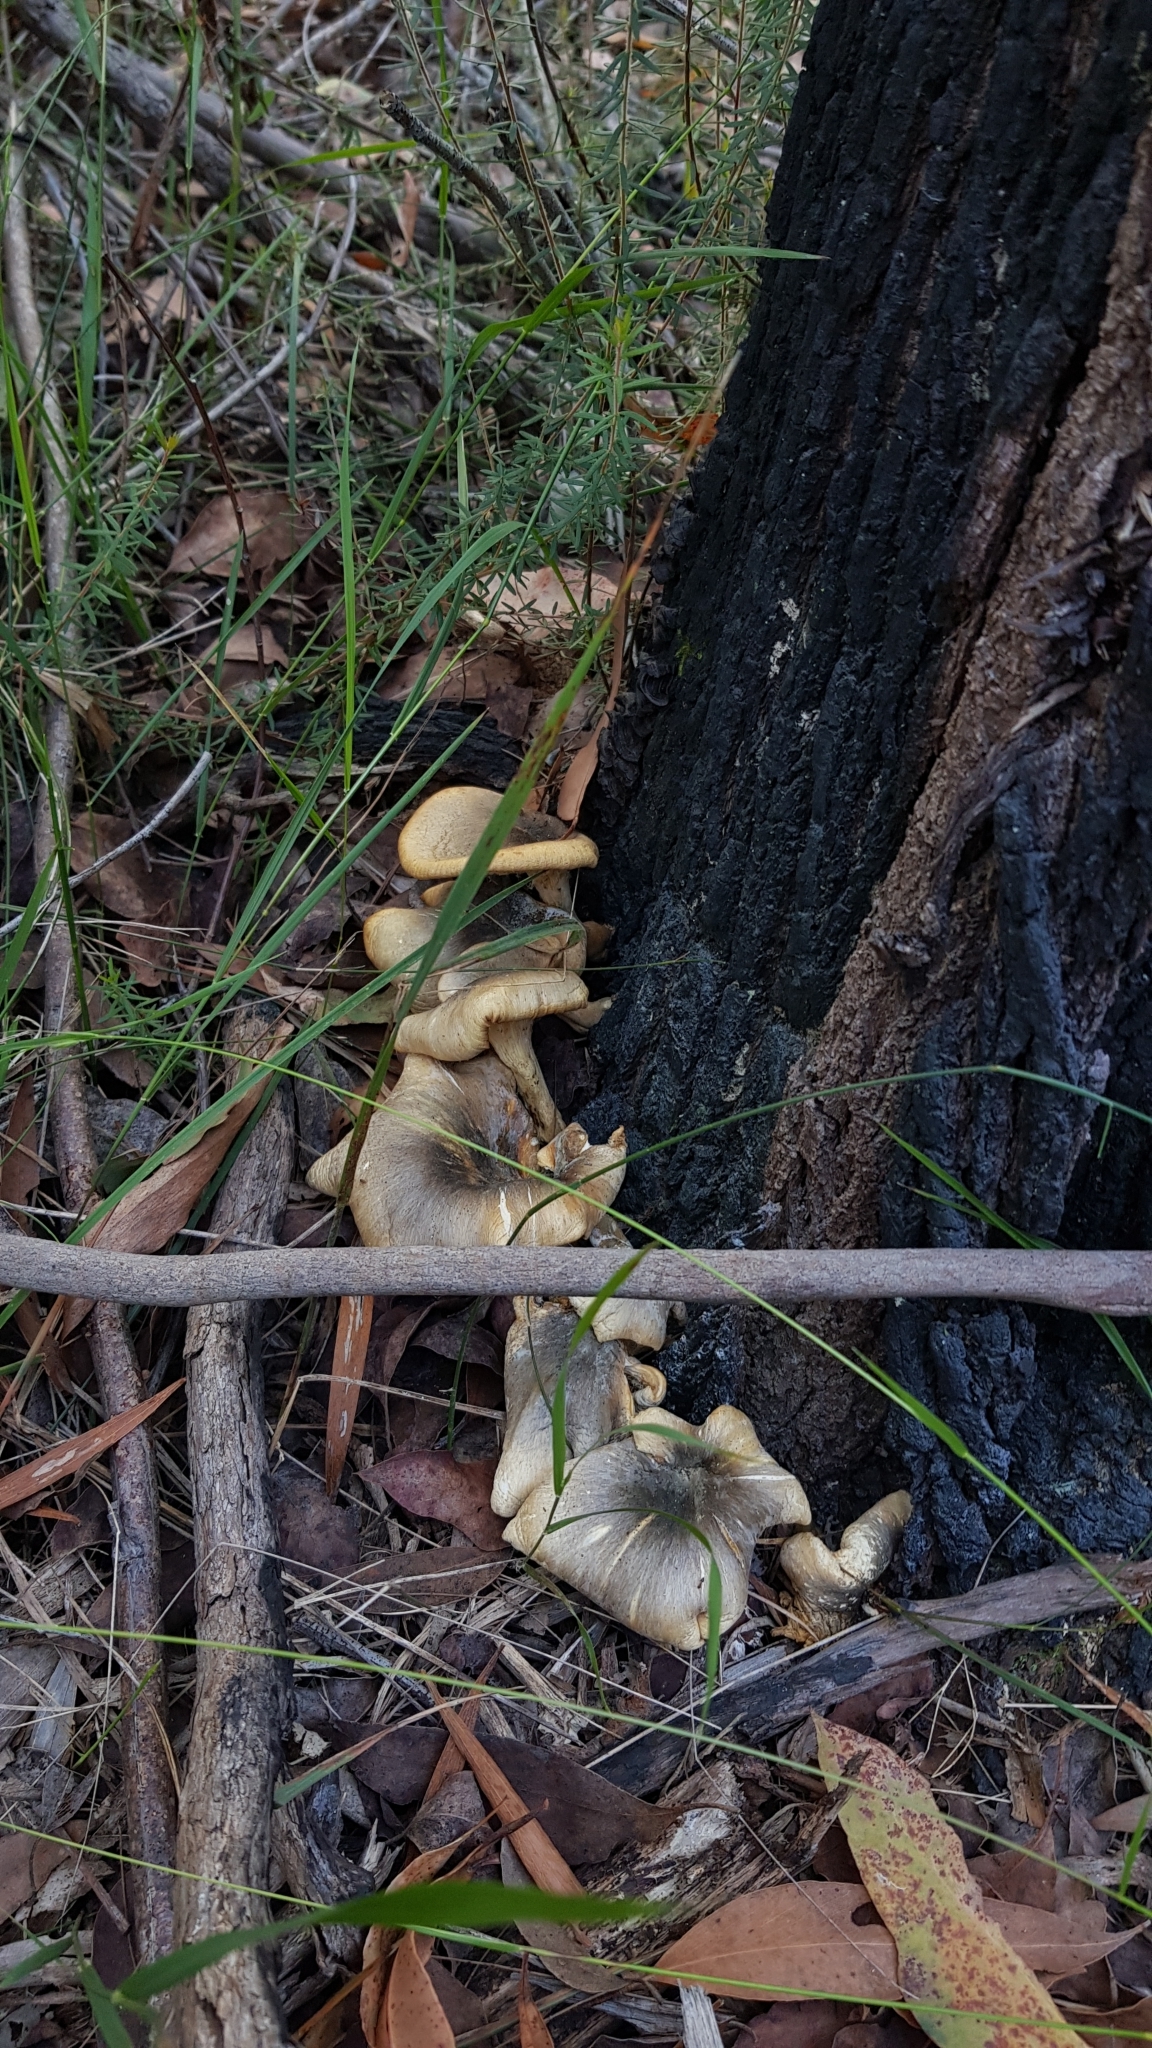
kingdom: Fungi
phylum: Basidiomycota
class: Agaricomycetes
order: Agaricales
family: Omphalotaceae
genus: Omphalotus
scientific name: Omphalotus nidiformis
